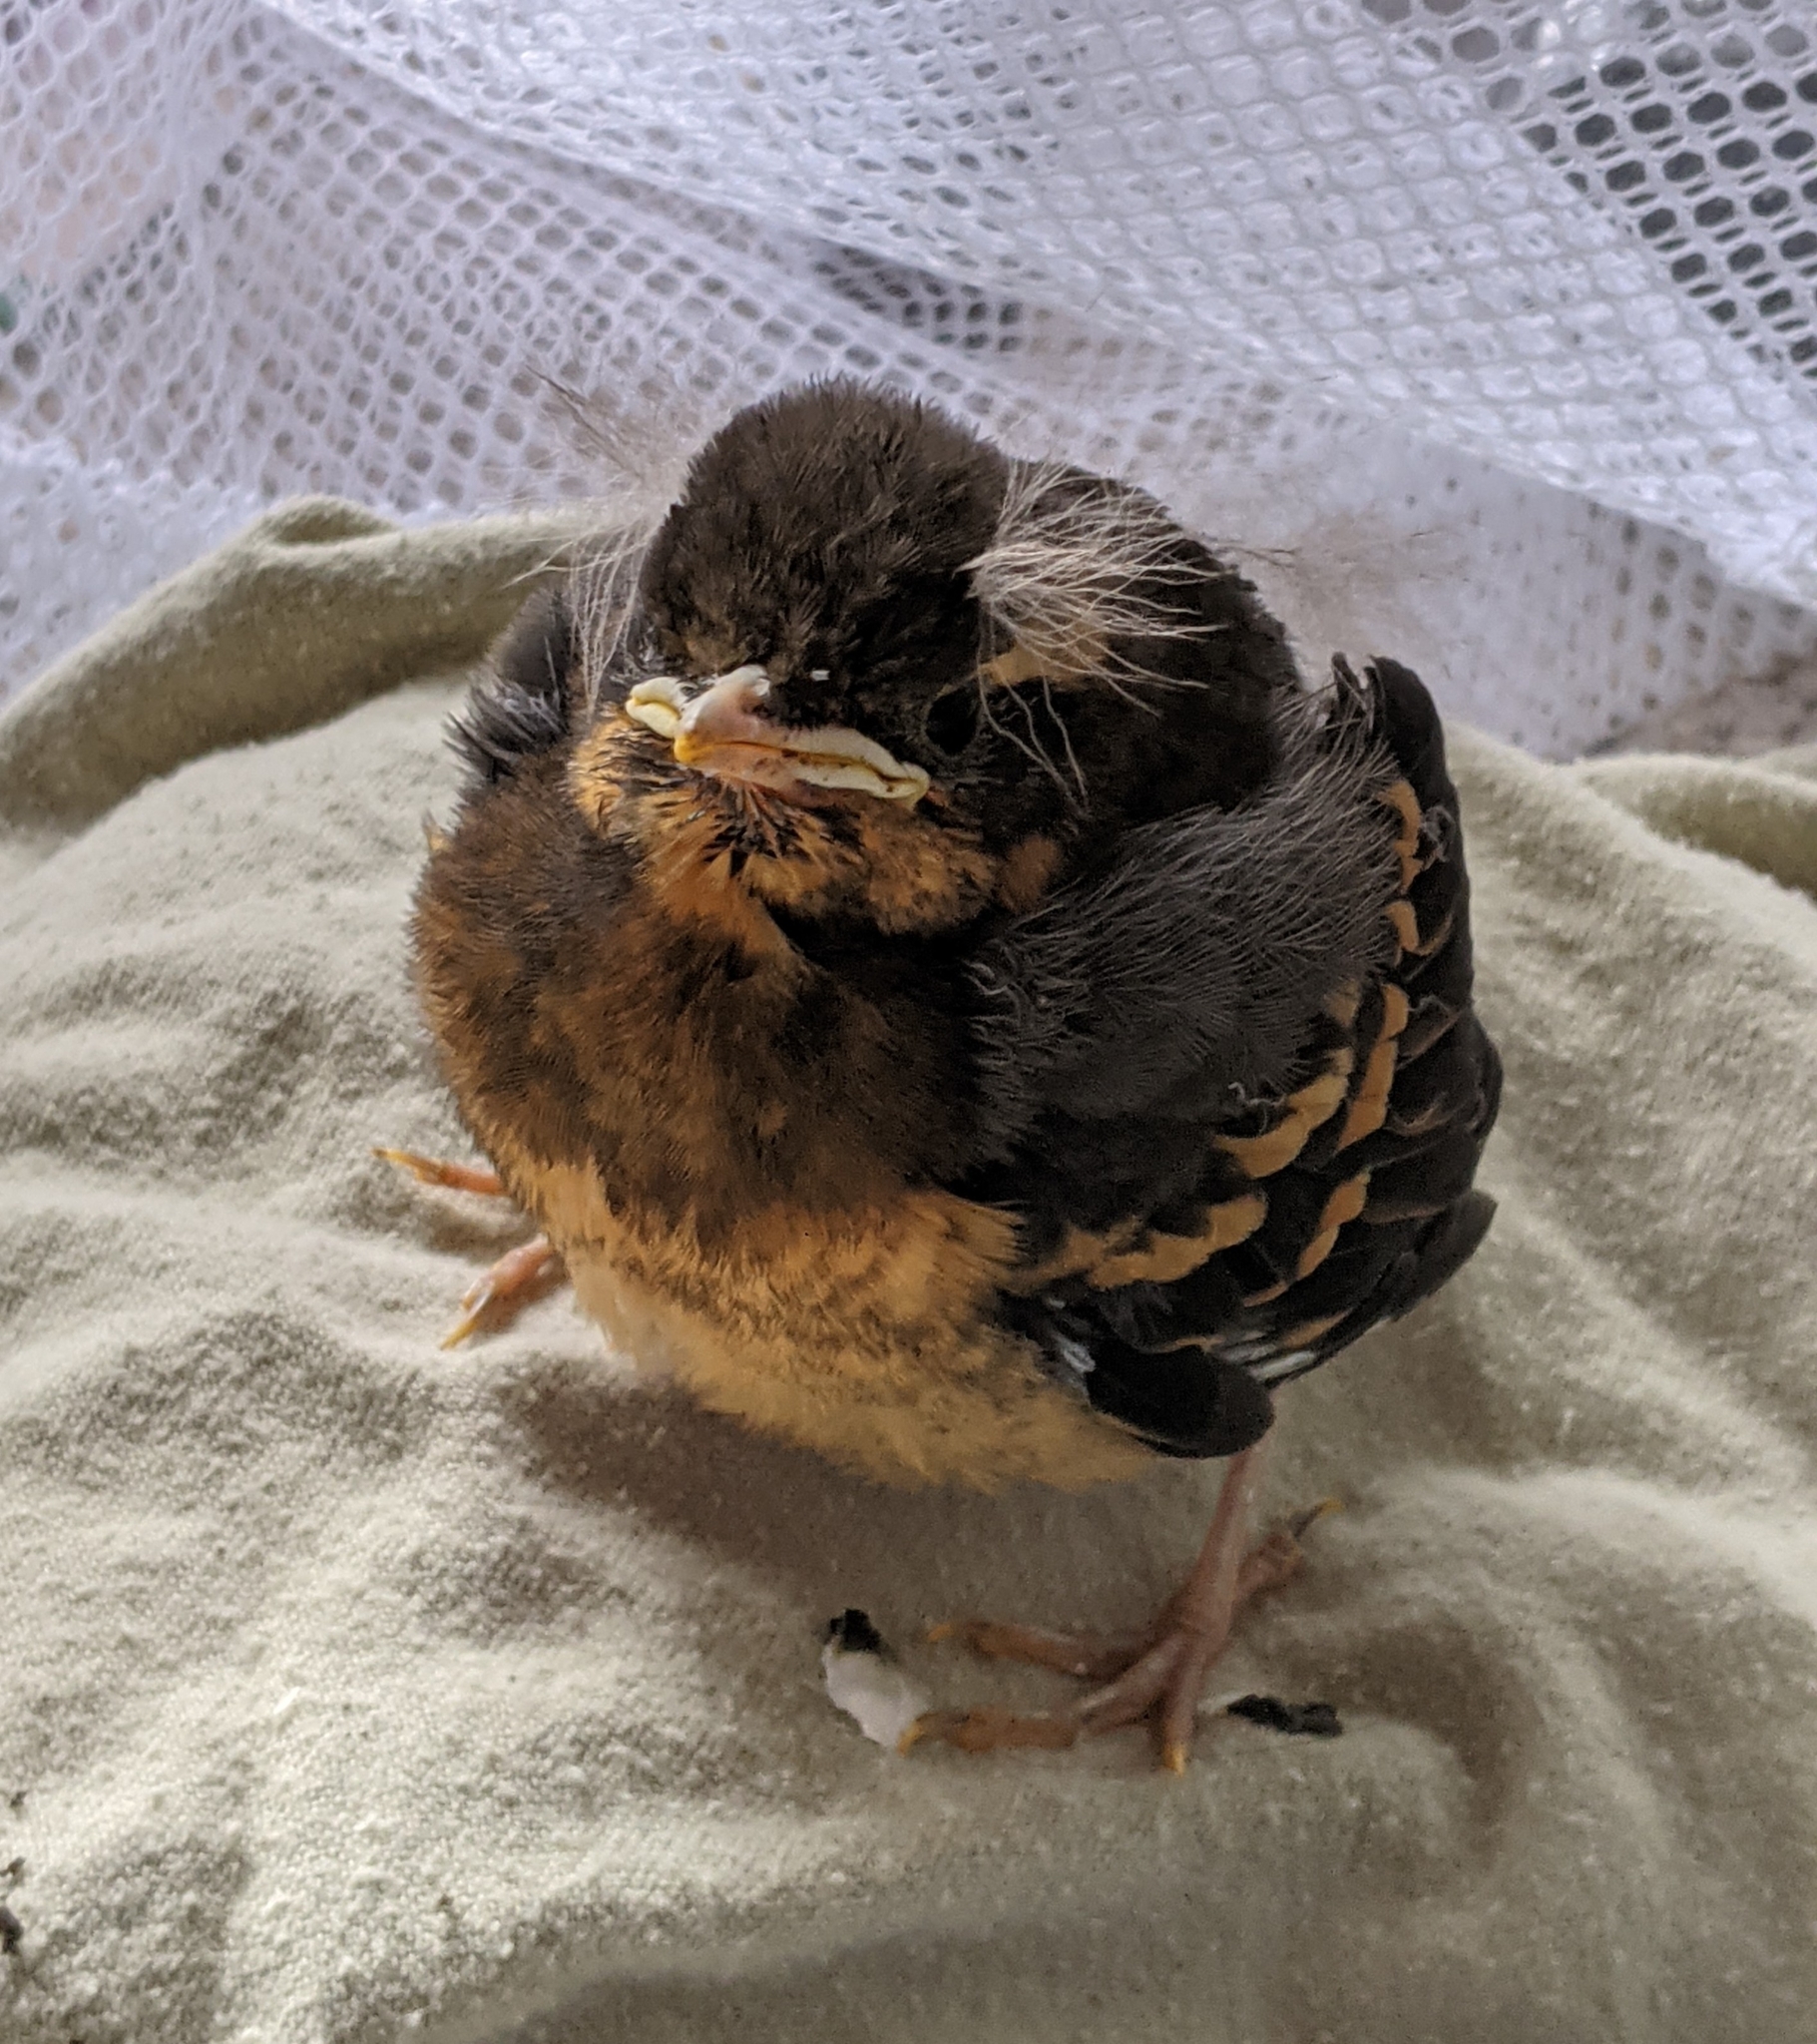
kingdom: Animalia
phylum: Chordata
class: Aves
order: Passeriformes
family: Turdidae
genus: Ixoreus
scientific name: Ixoreus naevius
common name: Varied thrush
